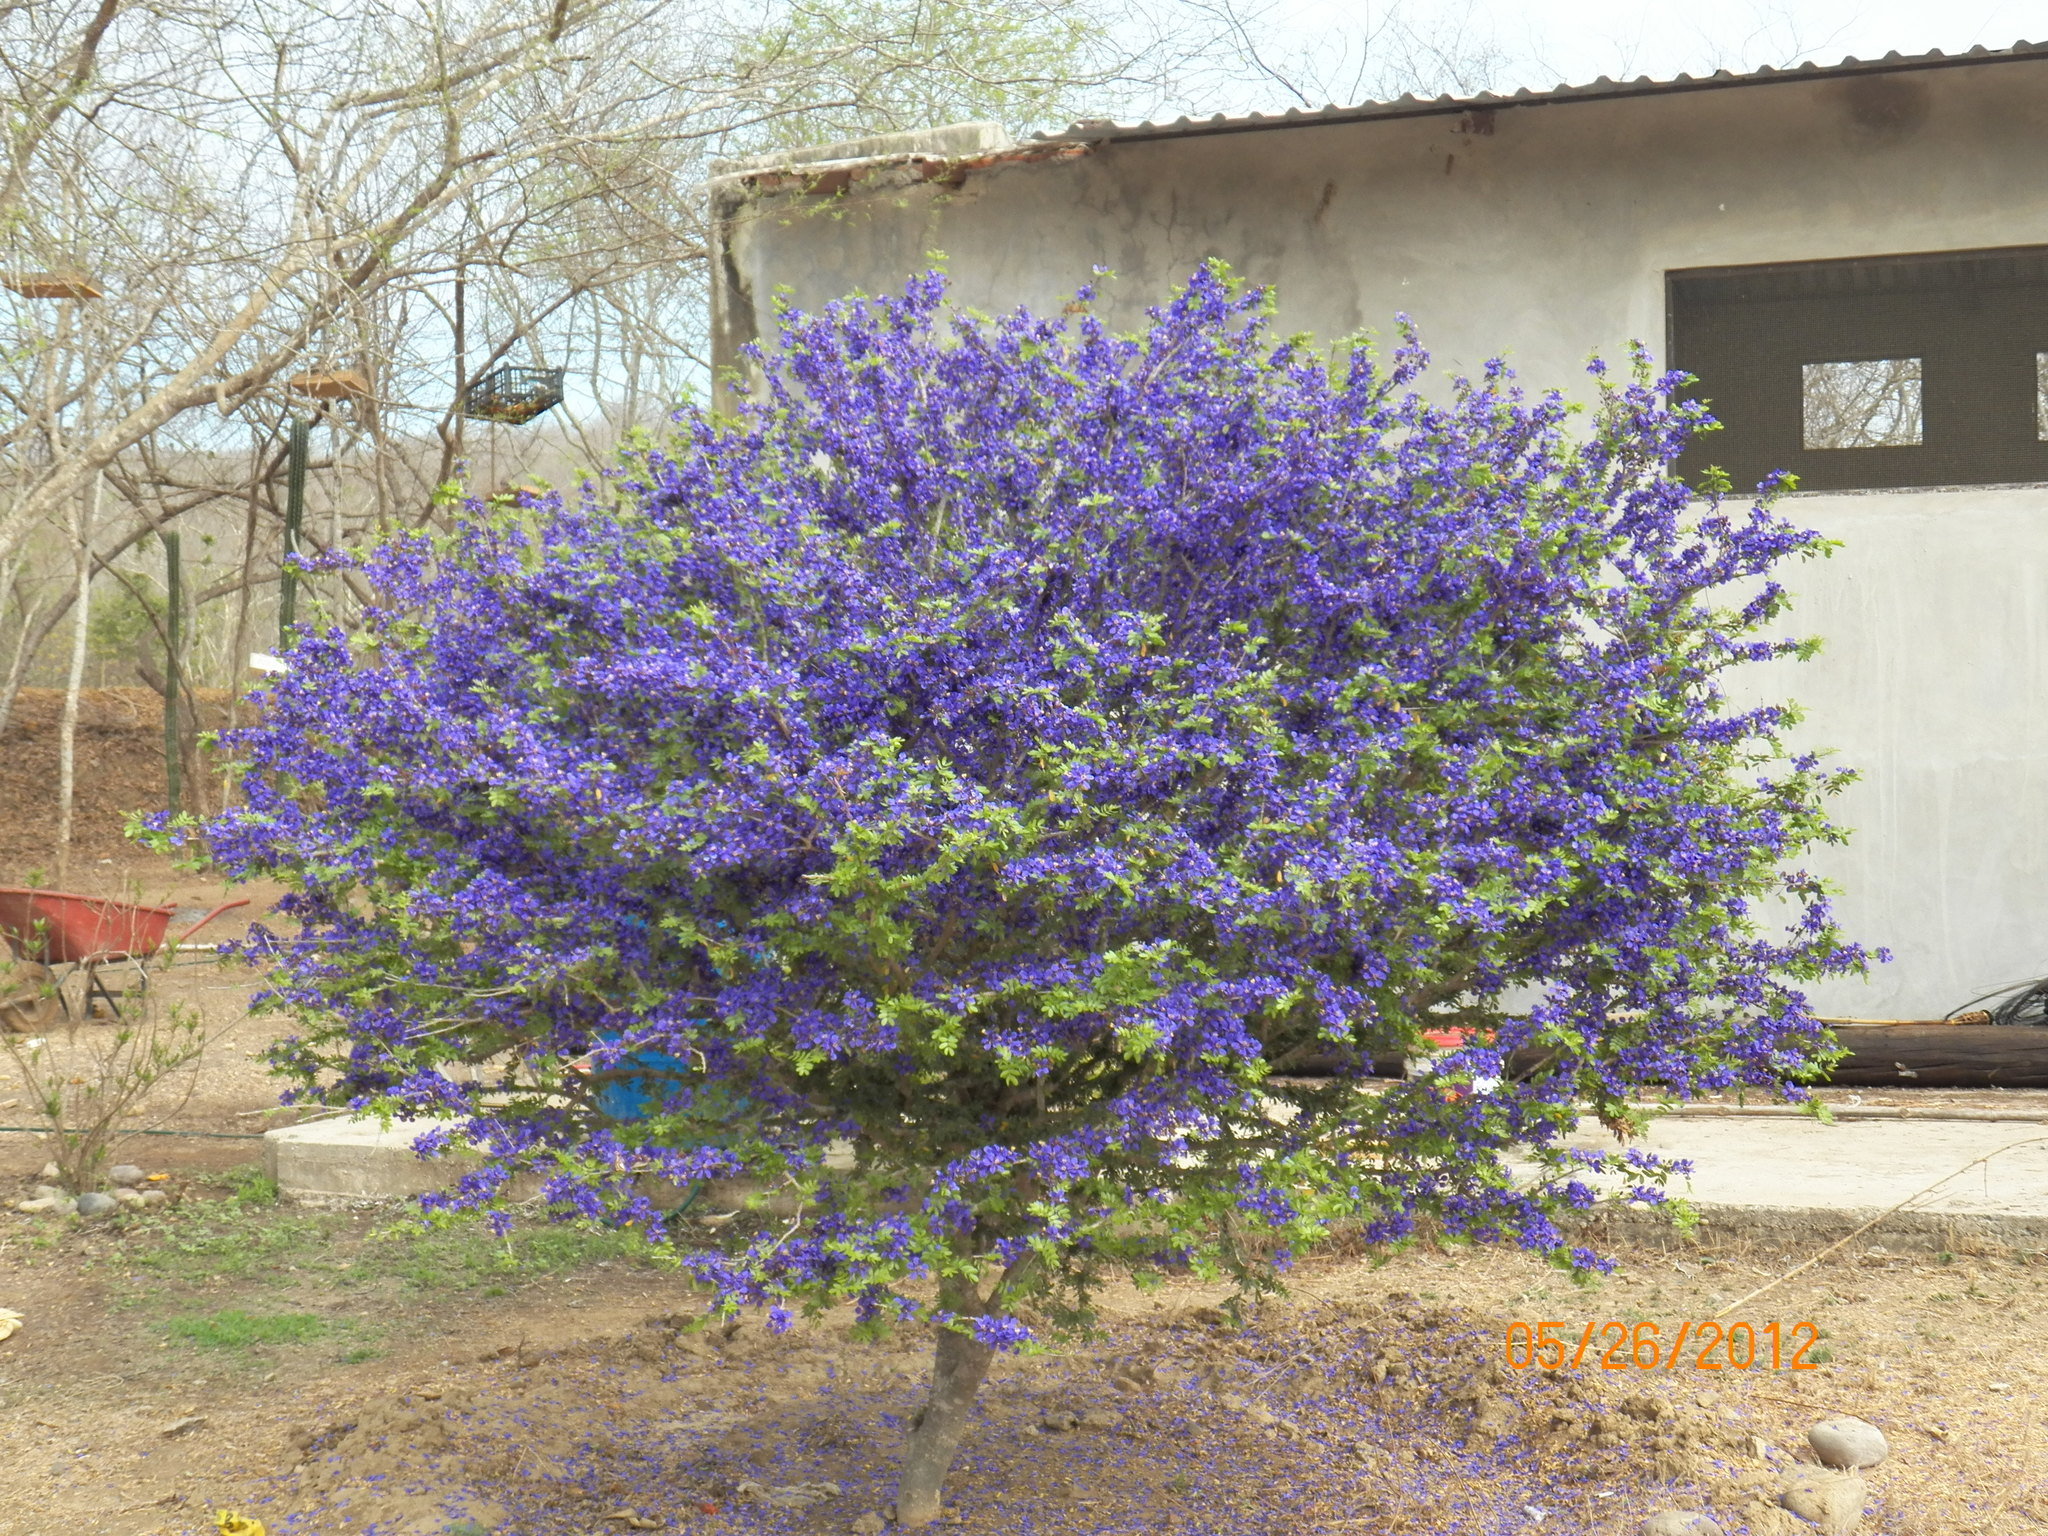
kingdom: Plantae
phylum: Tracheophyta
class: Magnoliopsida
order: Zygophyllales
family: Zygophyllaceae
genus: Guaiacum
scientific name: Guaiacum coulteri
